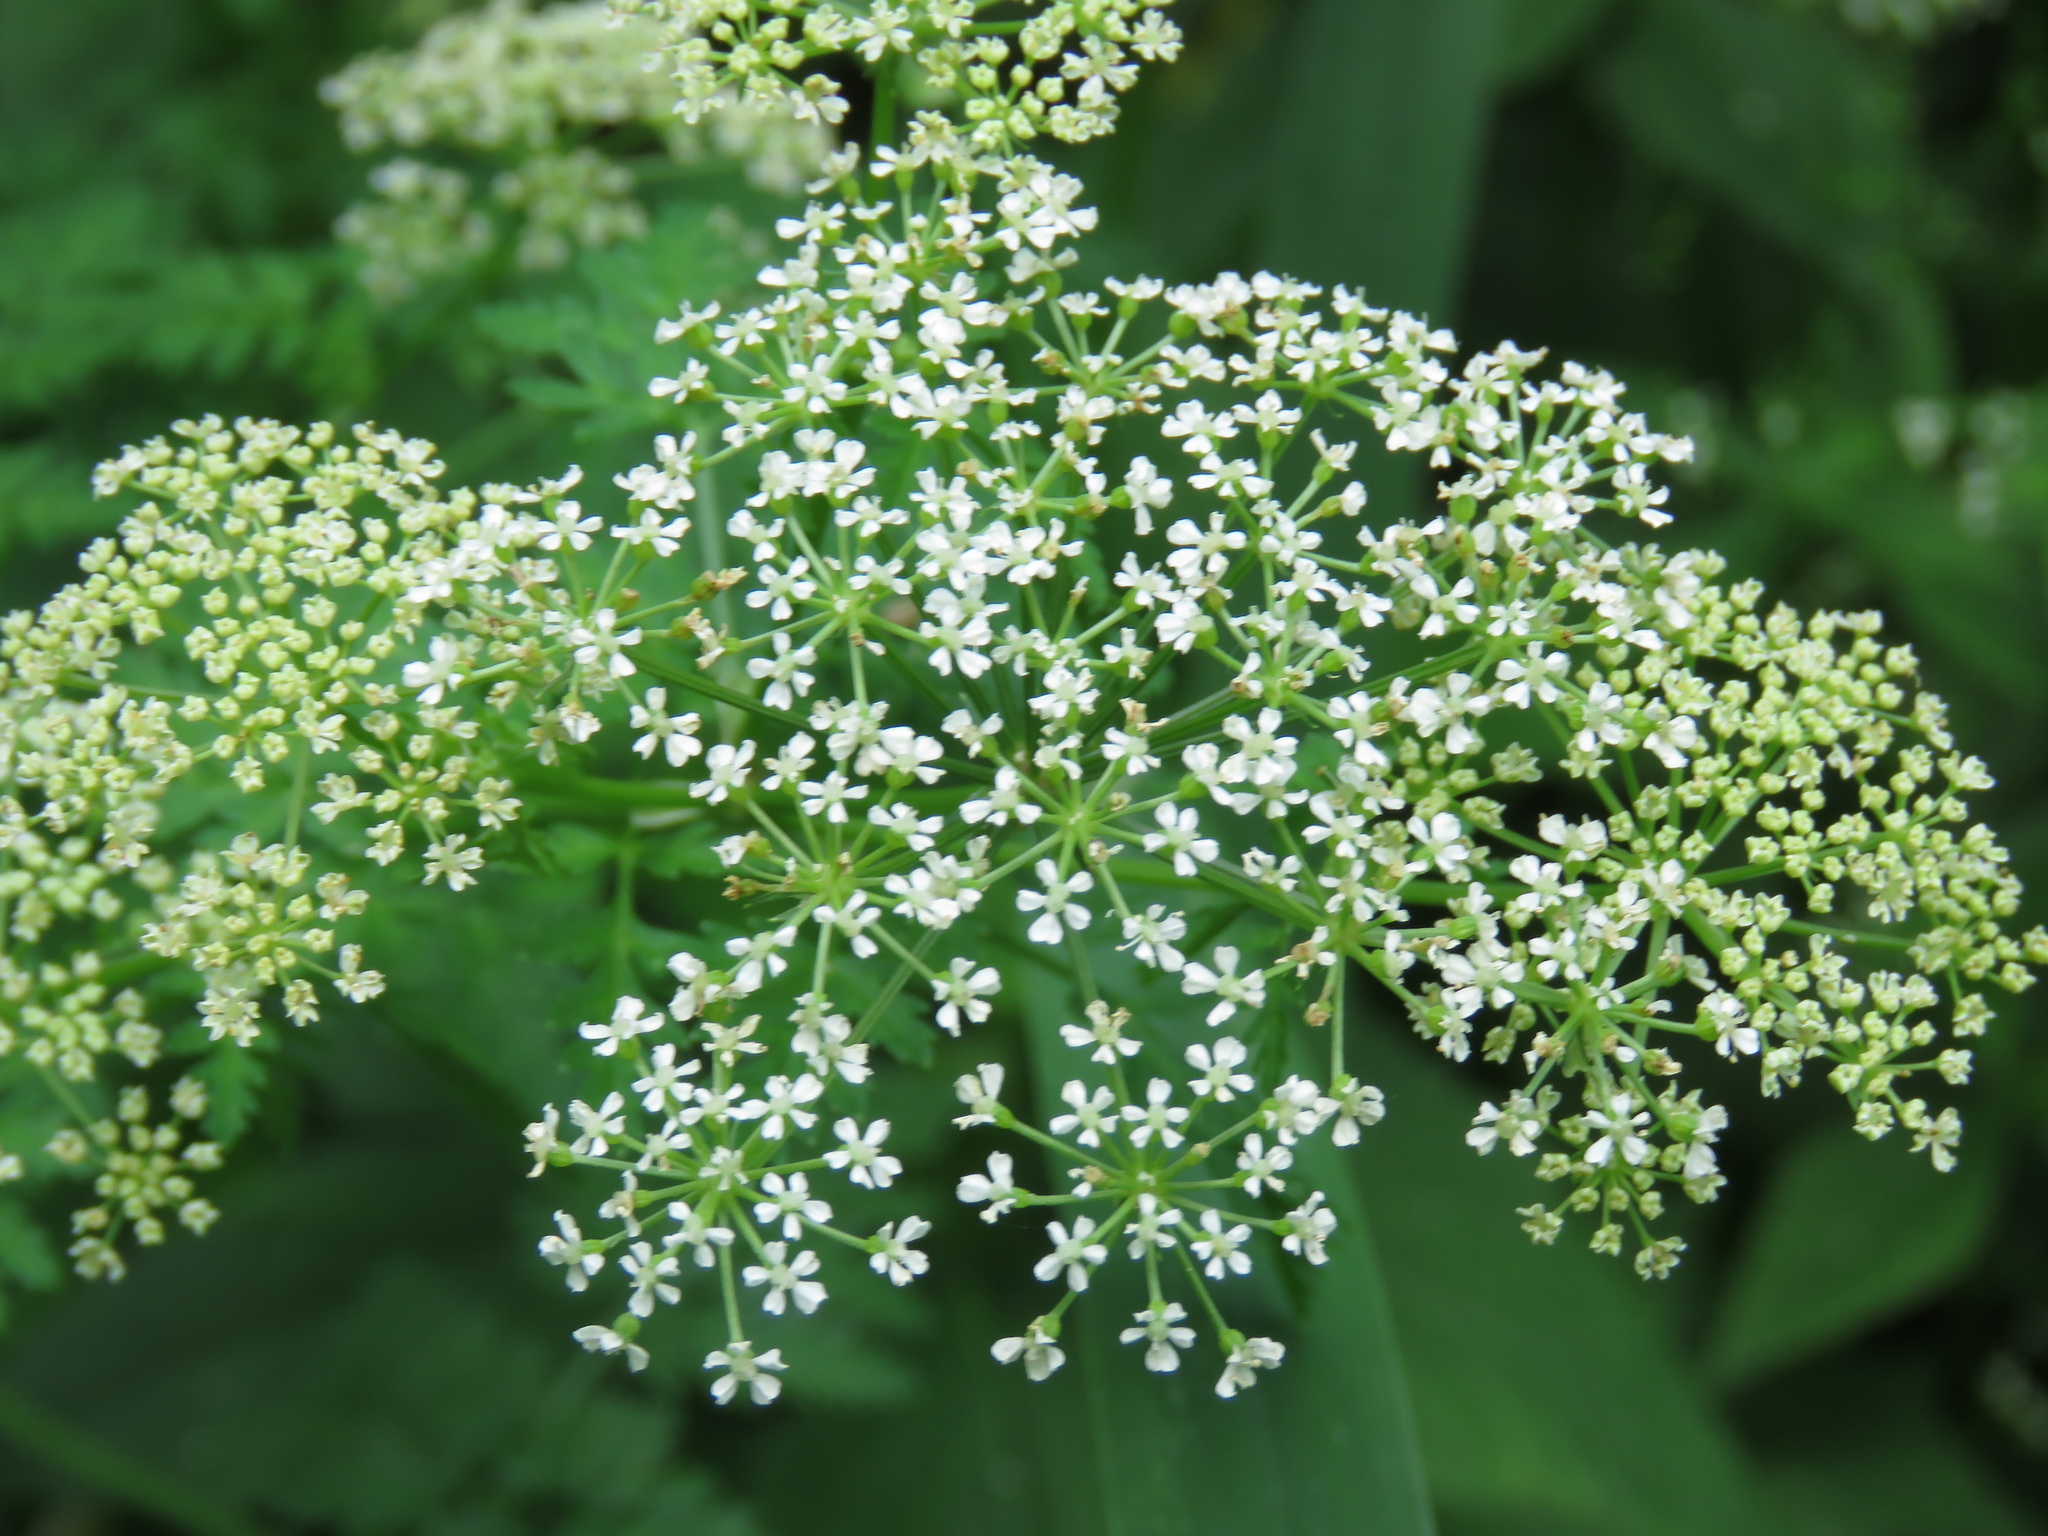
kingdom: Plantae
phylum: Tracheophyta
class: Magnoliopsida
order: Apiales
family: Apiaceae
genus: Conium
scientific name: Conium maculatum
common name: Hemlock
